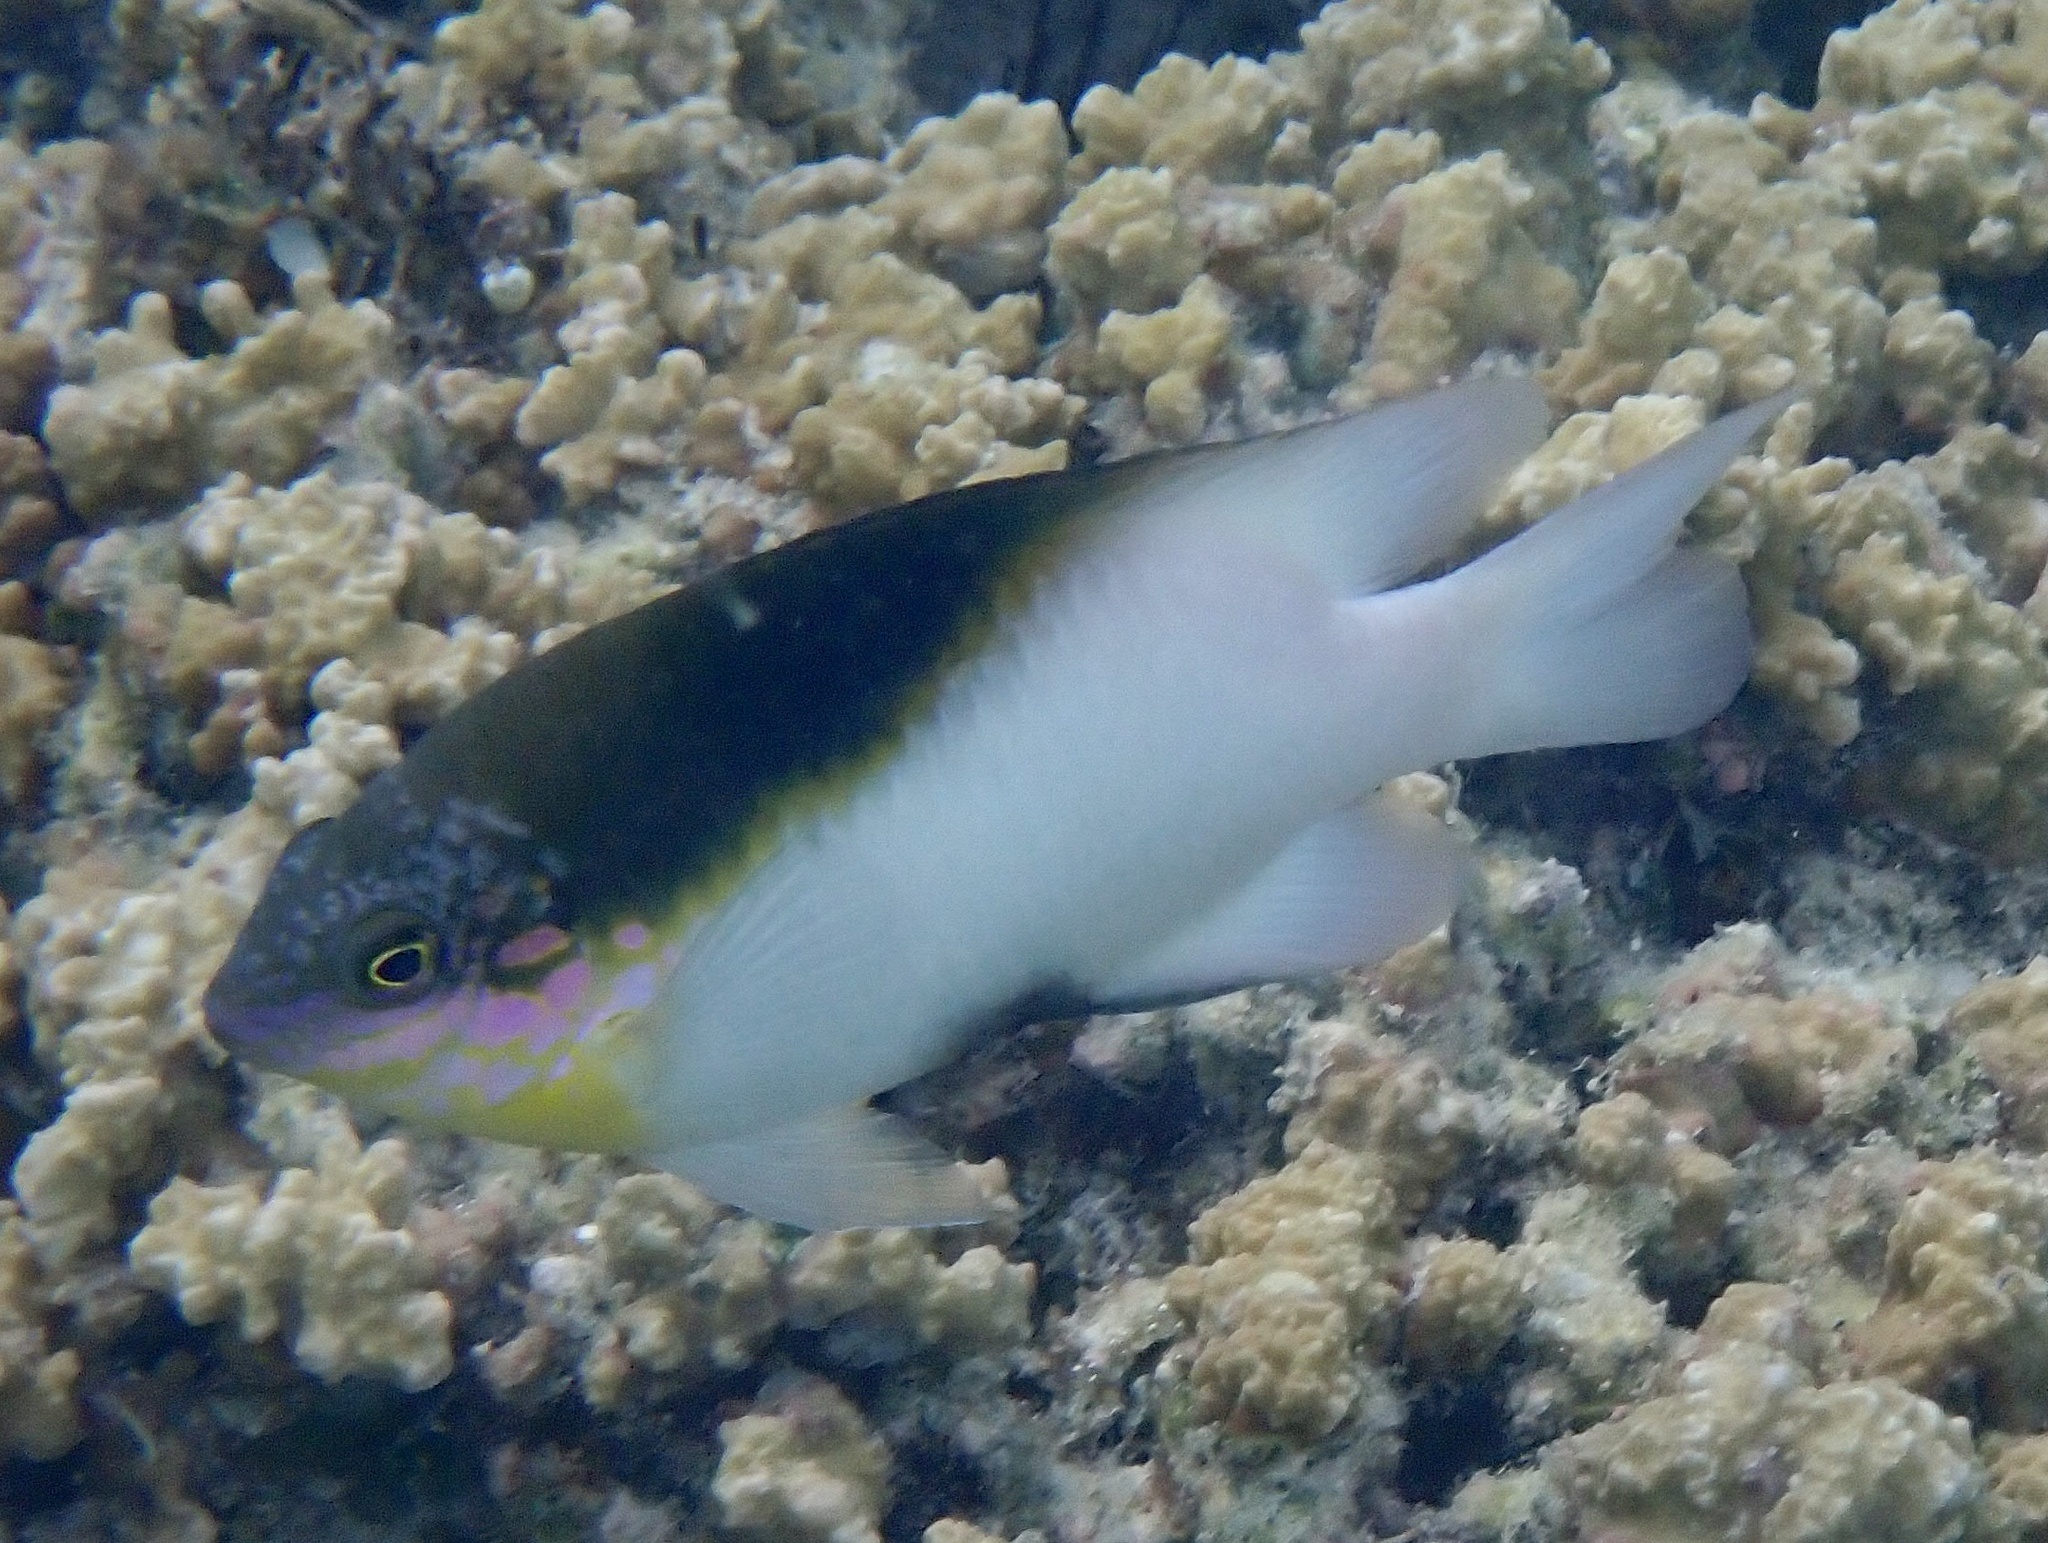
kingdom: Animalia
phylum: Chordata
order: Perciformes
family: Pomacentridae
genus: Dischistodus
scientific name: Dischistodus melanotus
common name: Black-vent damsel
